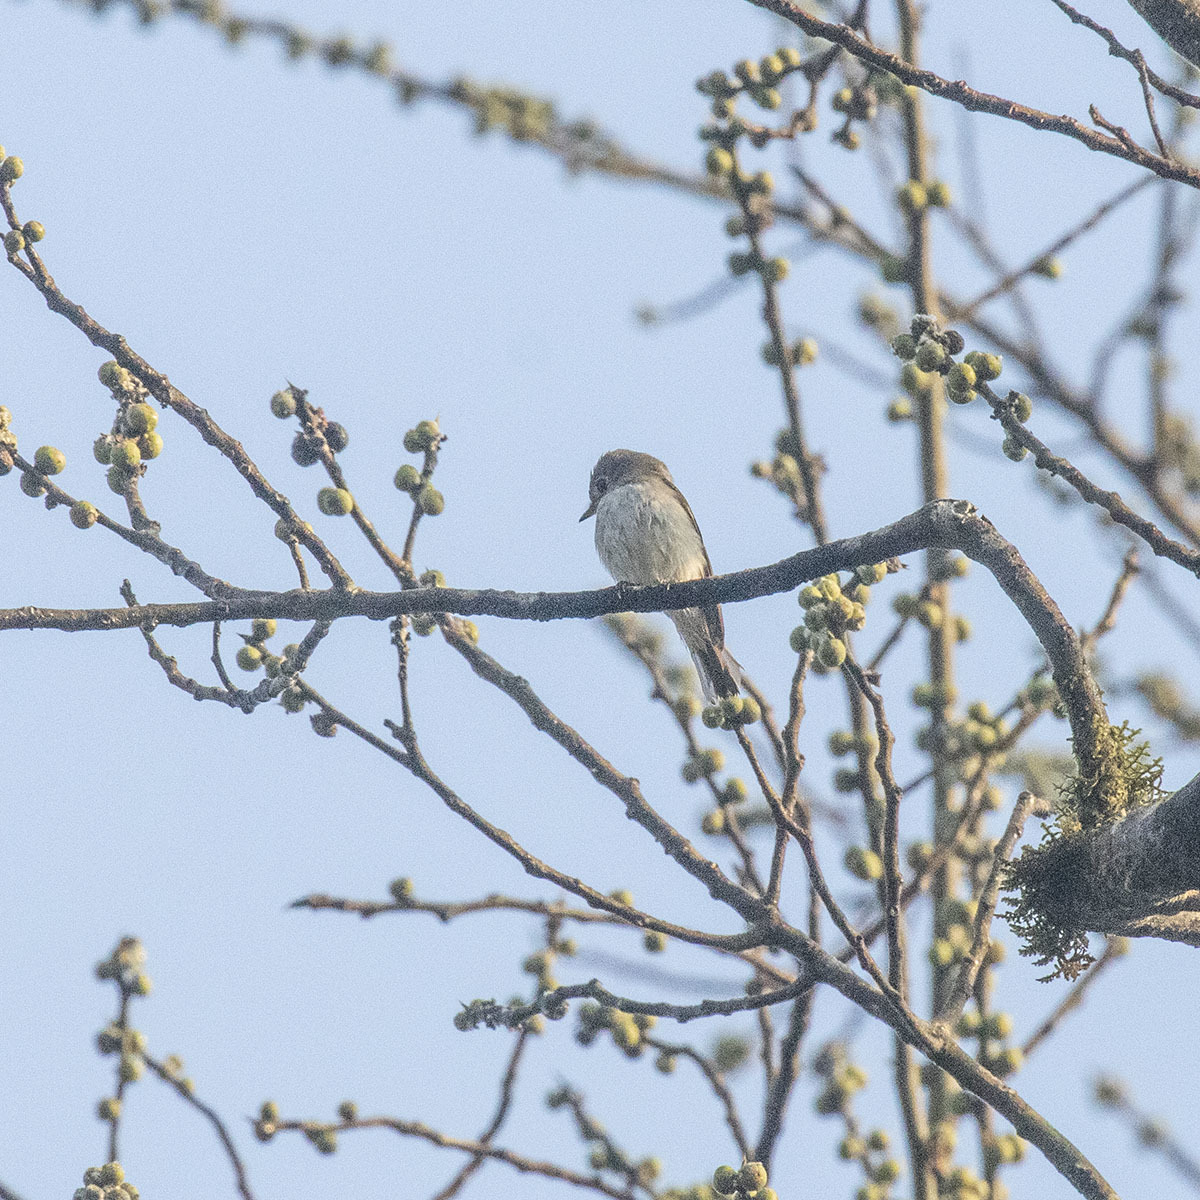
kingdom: Animalia
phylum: Chordata
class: Aves
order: Passeriformes
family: Muscicapidae
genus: Muscicapa
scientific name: Muscicapa latirostris
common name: Asian brown flycatcher
